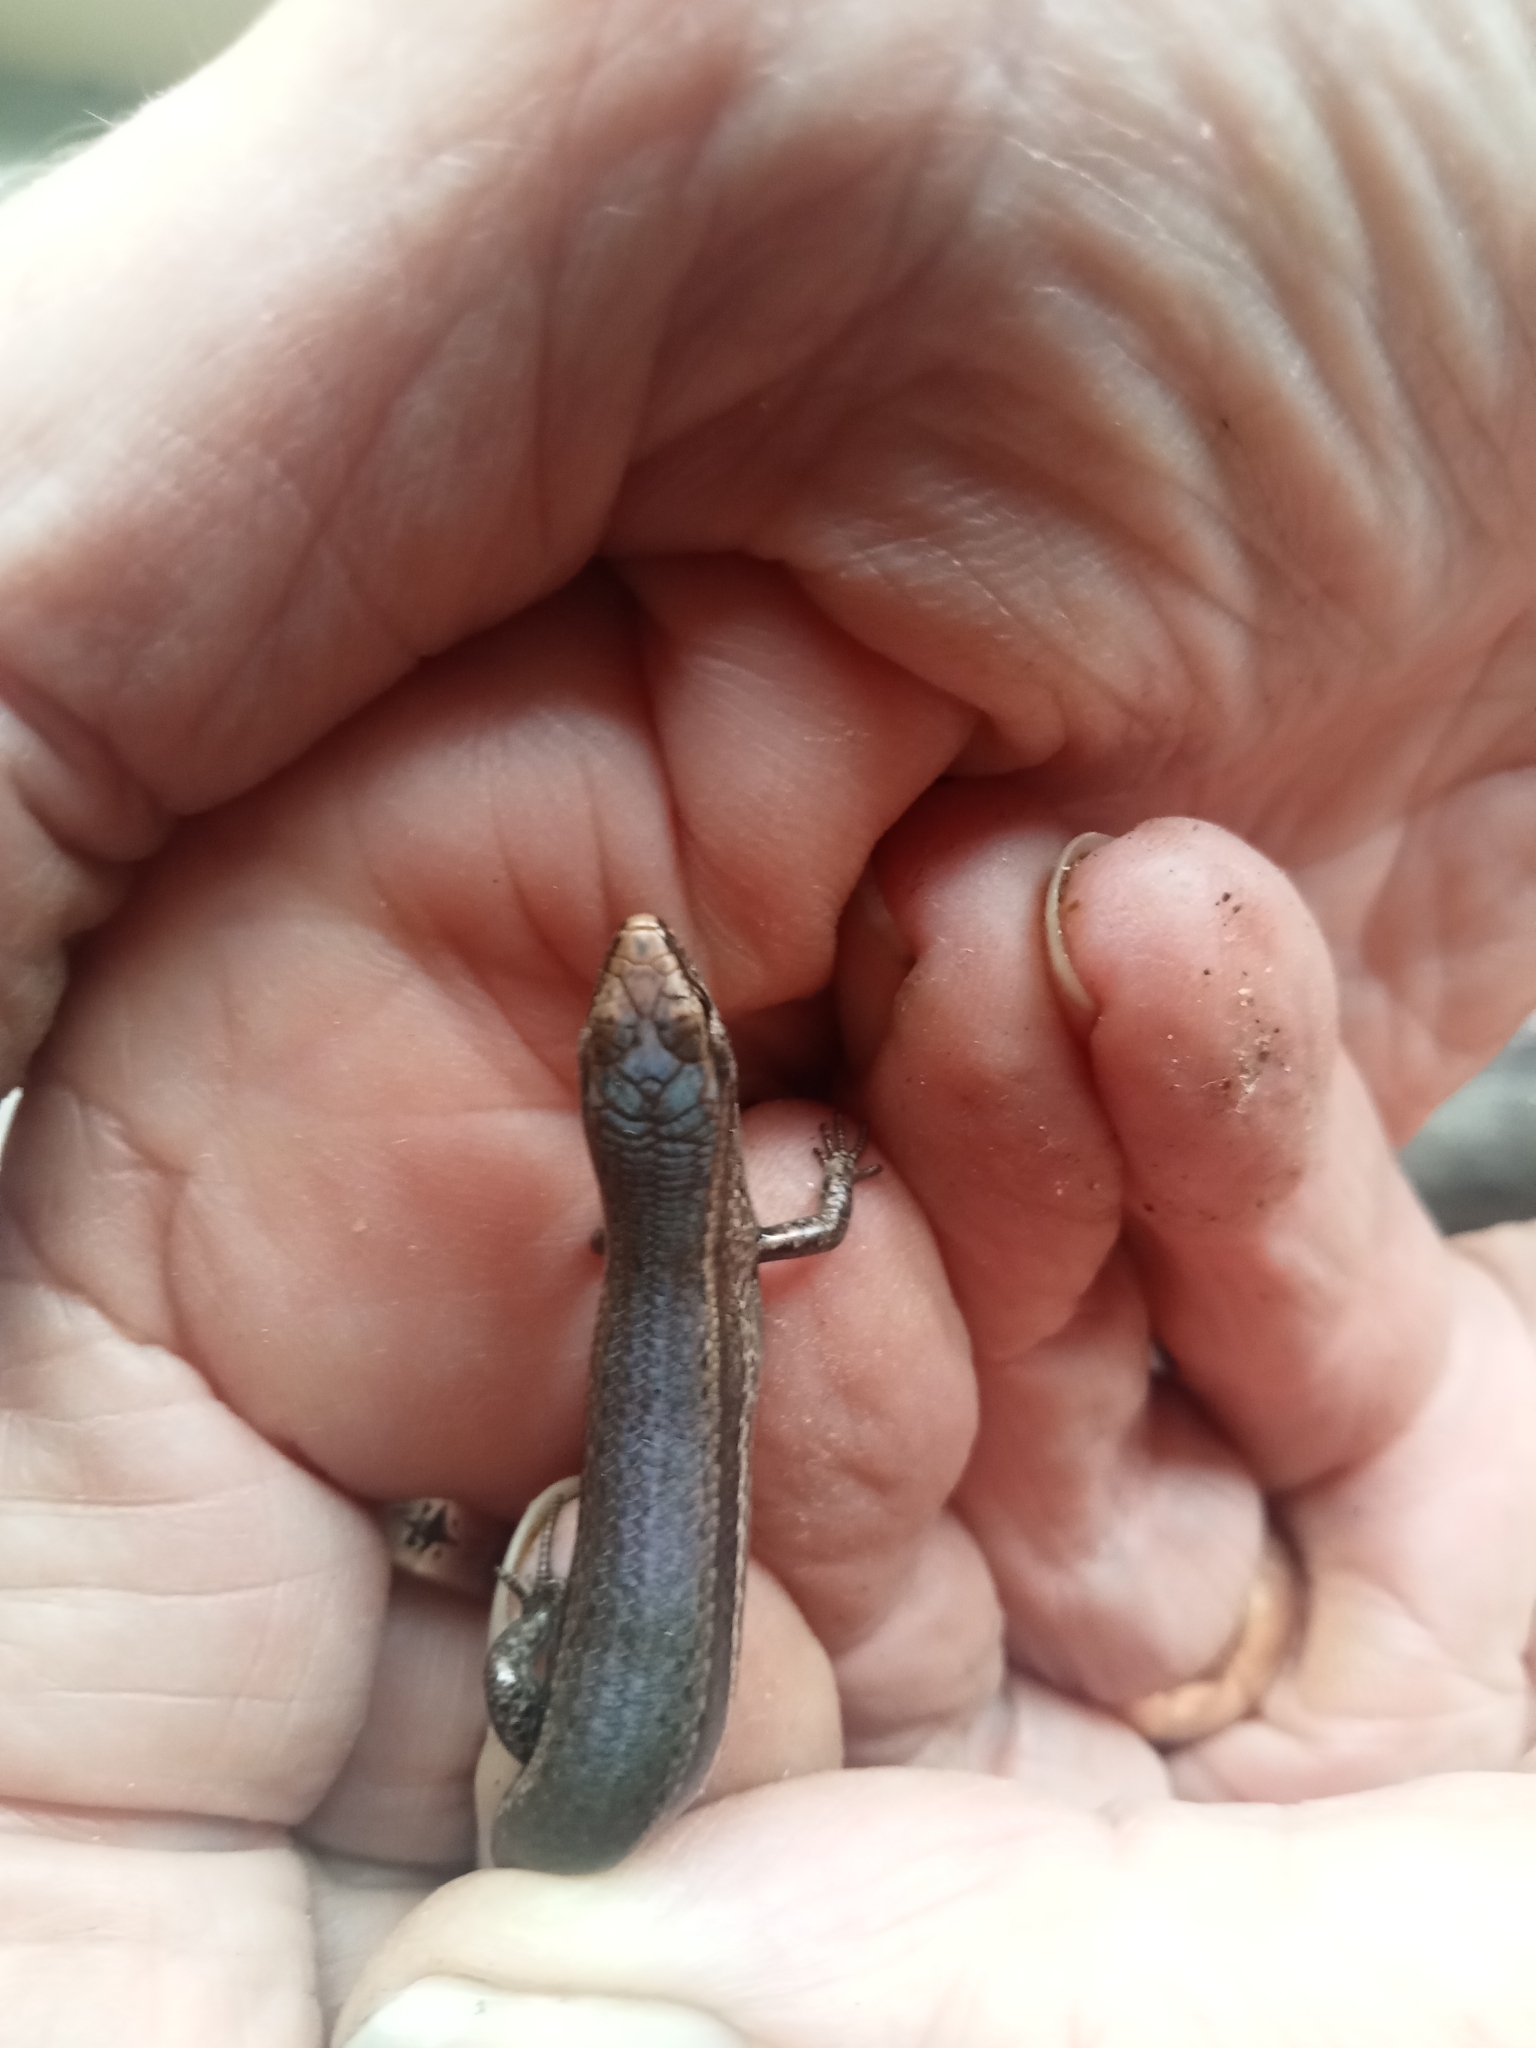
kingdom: Animalia
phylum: Chordata
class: Squamata
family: Scincidae
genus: Lampropholis
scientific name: Lampropholis delicata
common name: Plague skink
